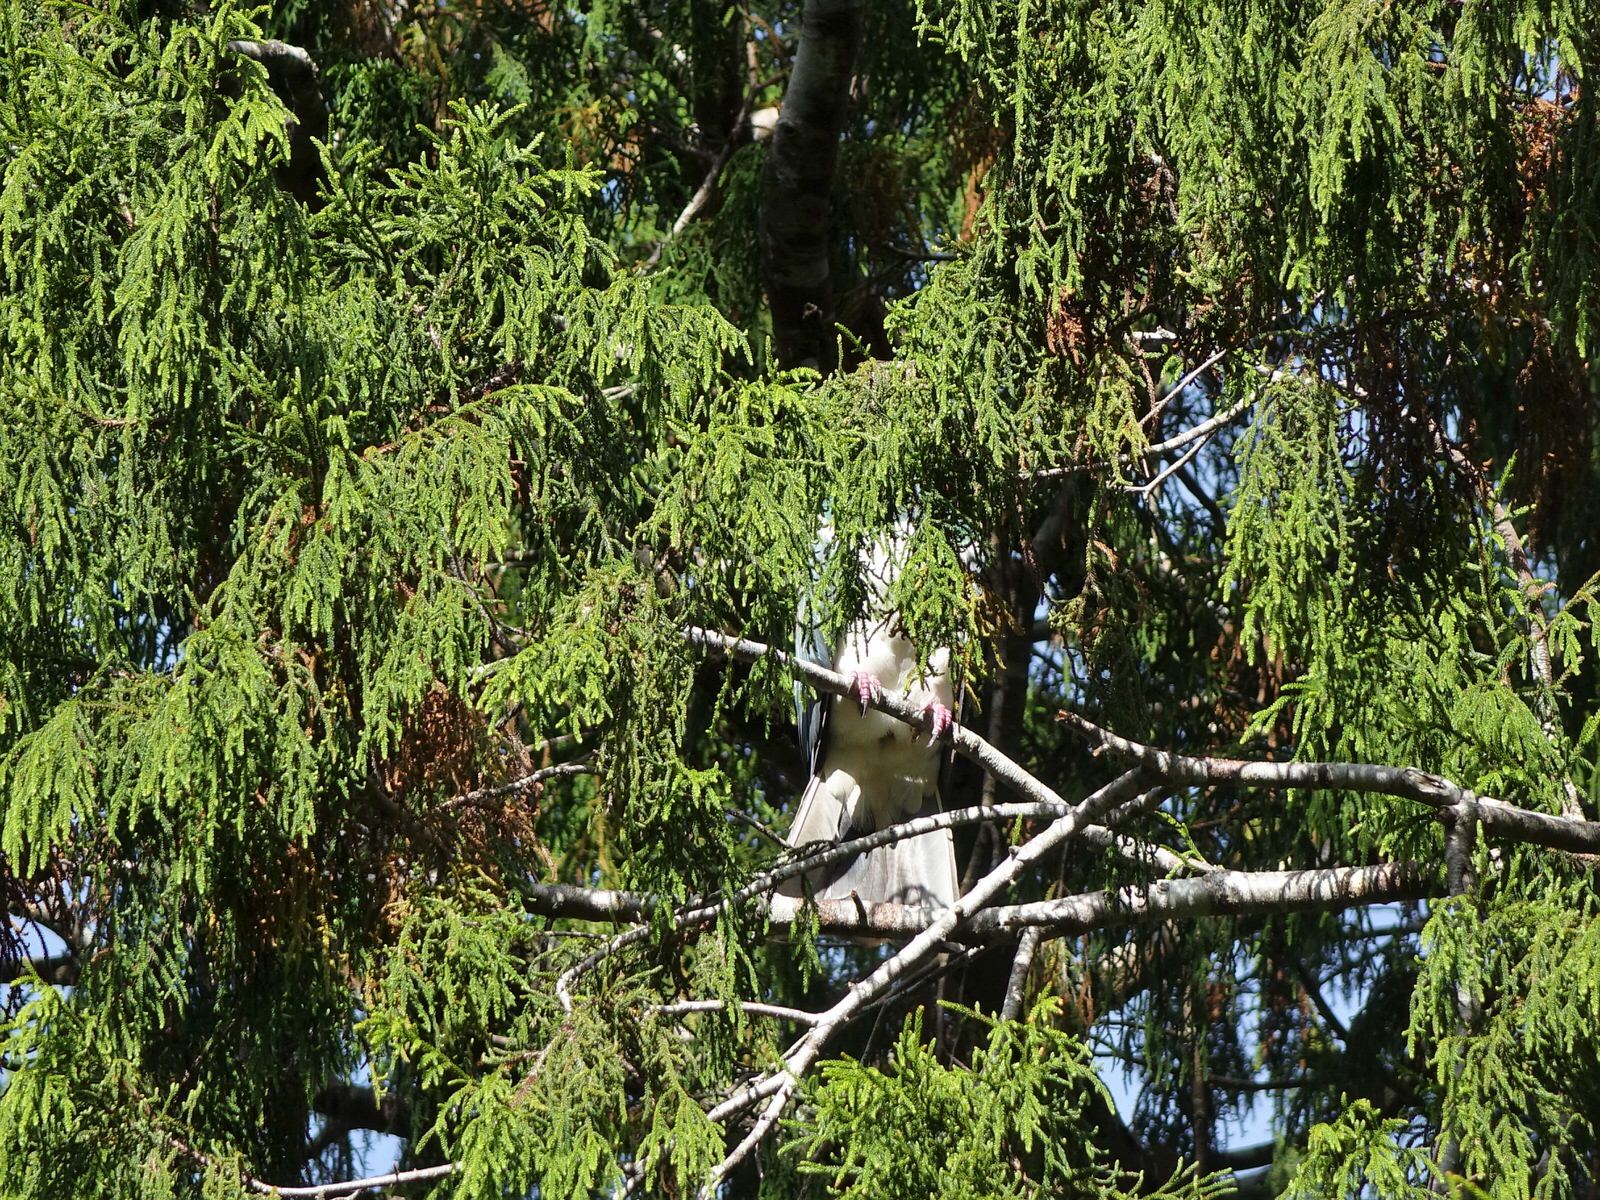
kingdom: Animalia
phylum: Chordata
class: Aves
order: Columbiformes
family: Columbidae
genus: Hemiphaga
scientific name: Hemiphaga novaeseelandiae
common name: New zealand pigeon
